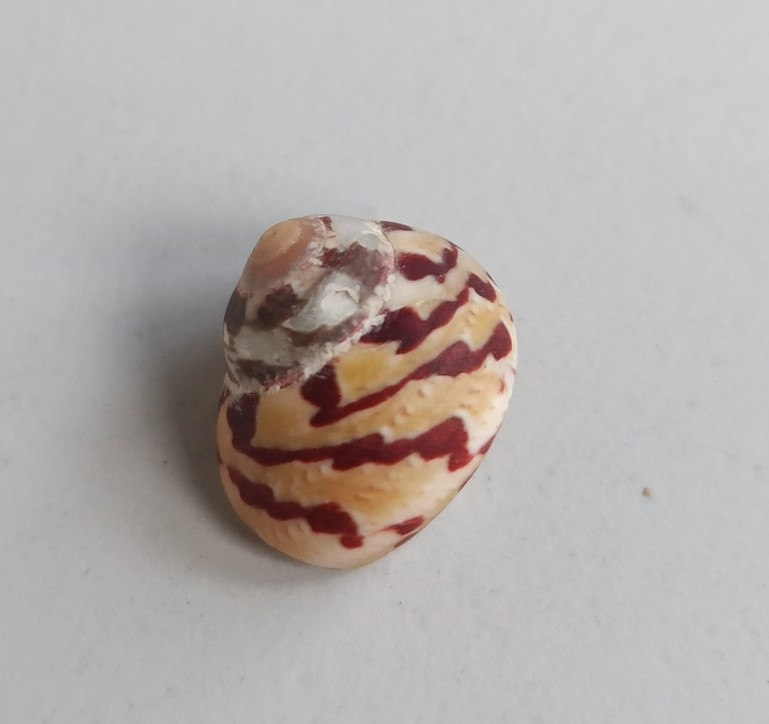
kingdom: Animalia
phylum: Mollusca
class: Gastropoda
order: Trochida
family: Trochidae
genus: Phorcus
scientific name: Phorcus mutabilis
